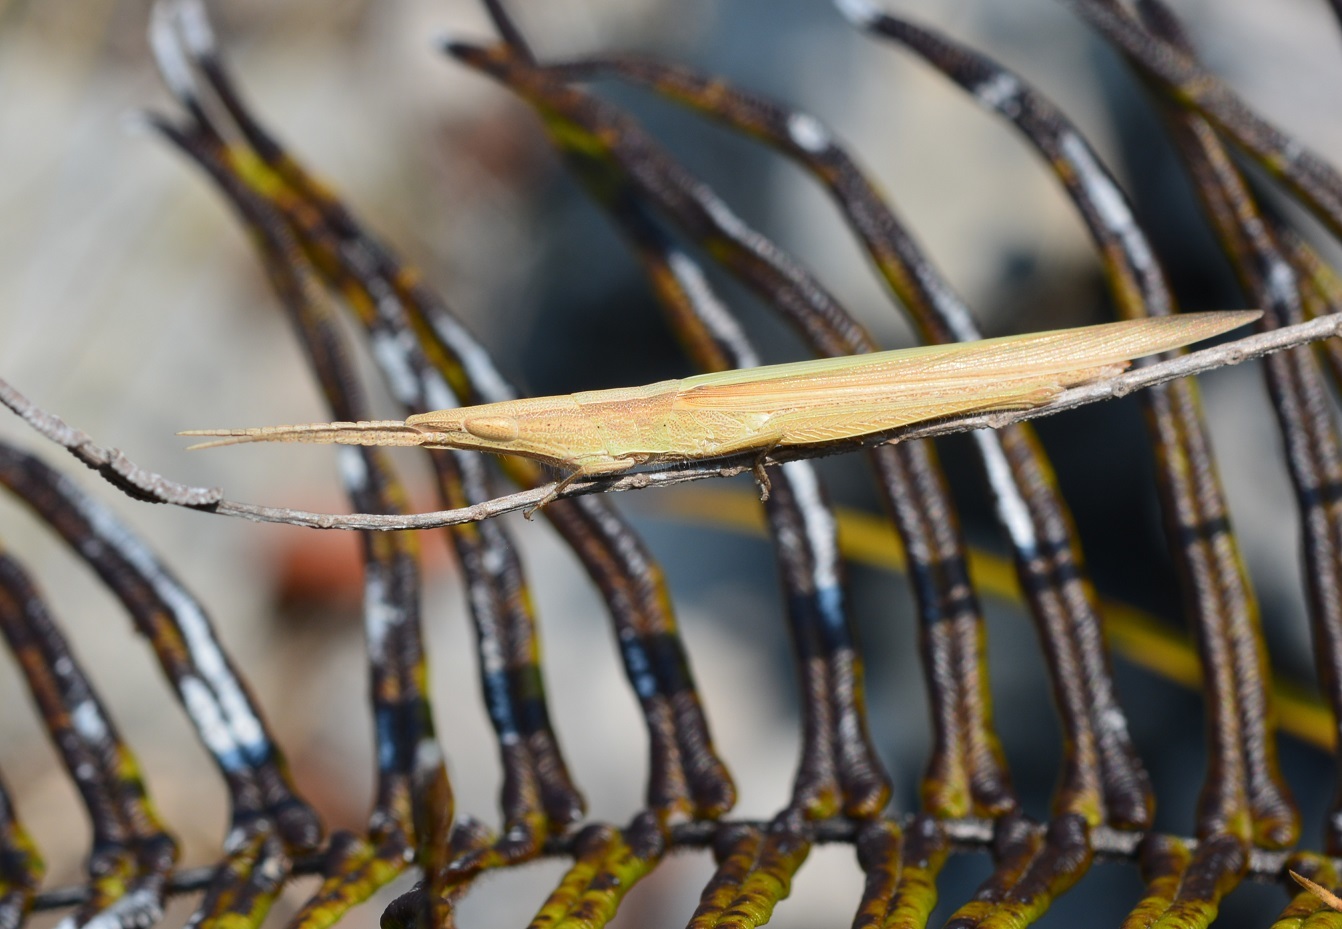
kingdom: Animalia
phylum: Arthropoda
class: Insecta
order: Orthoptera
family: Acrididae
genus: Achurum
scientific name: Achurum sumichrasti
